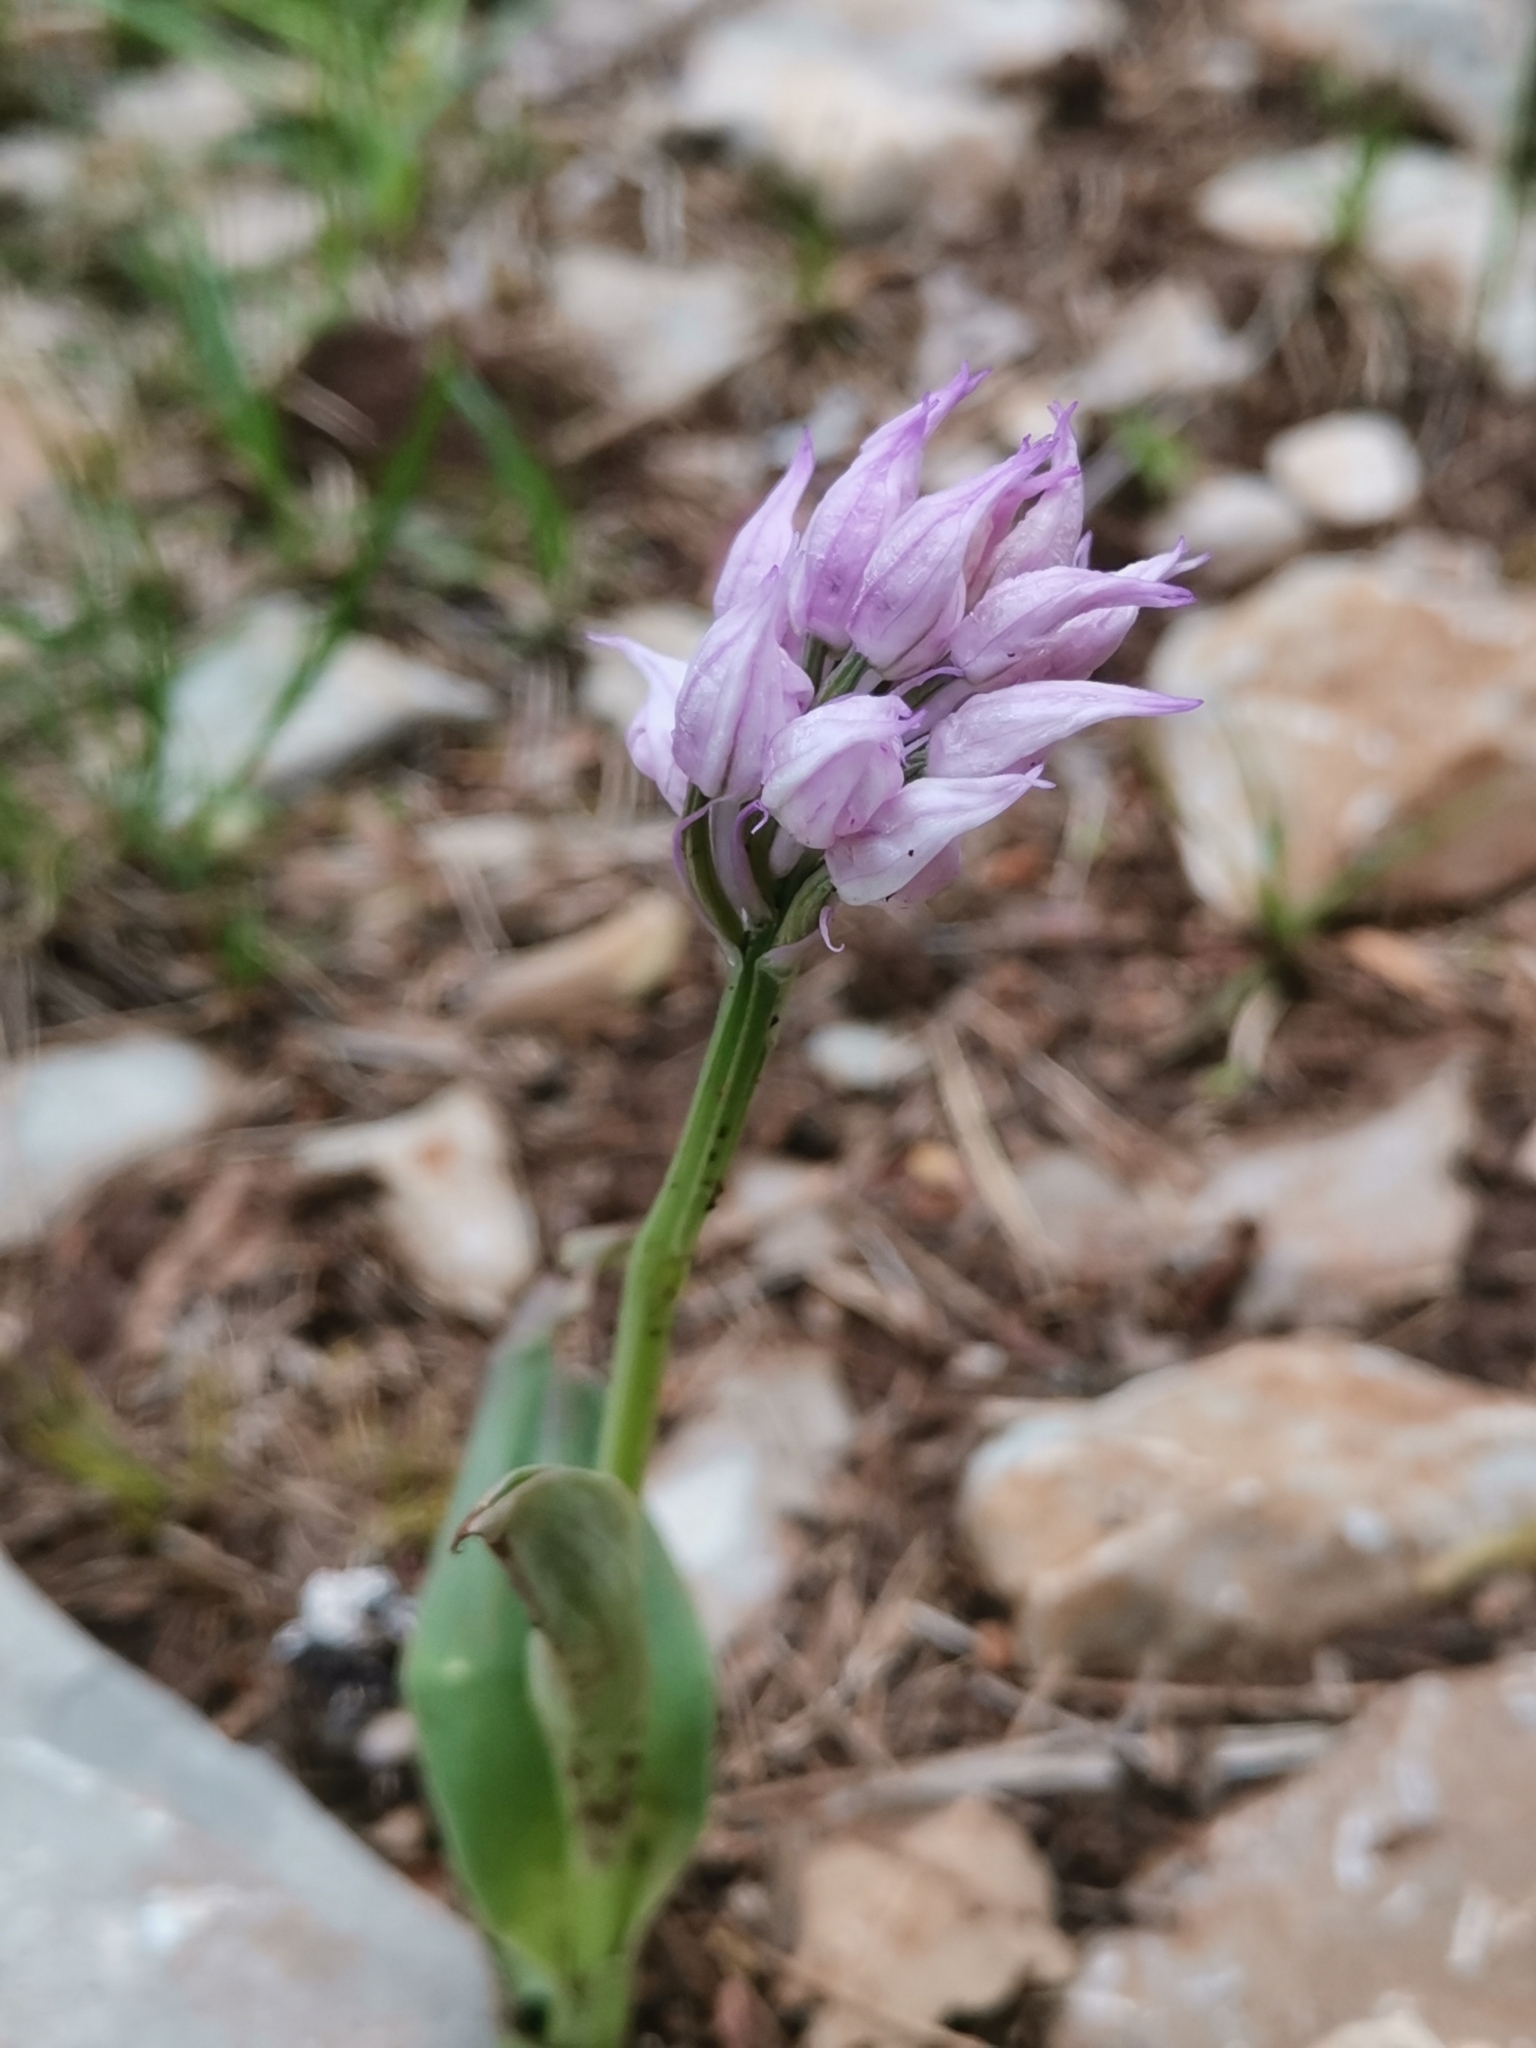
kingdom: Plantae
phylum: Tracheophyta
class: Liliopsida
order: Asparagales
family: Orchidaceae
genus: Neotinea
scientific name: Neotinea tridentata
